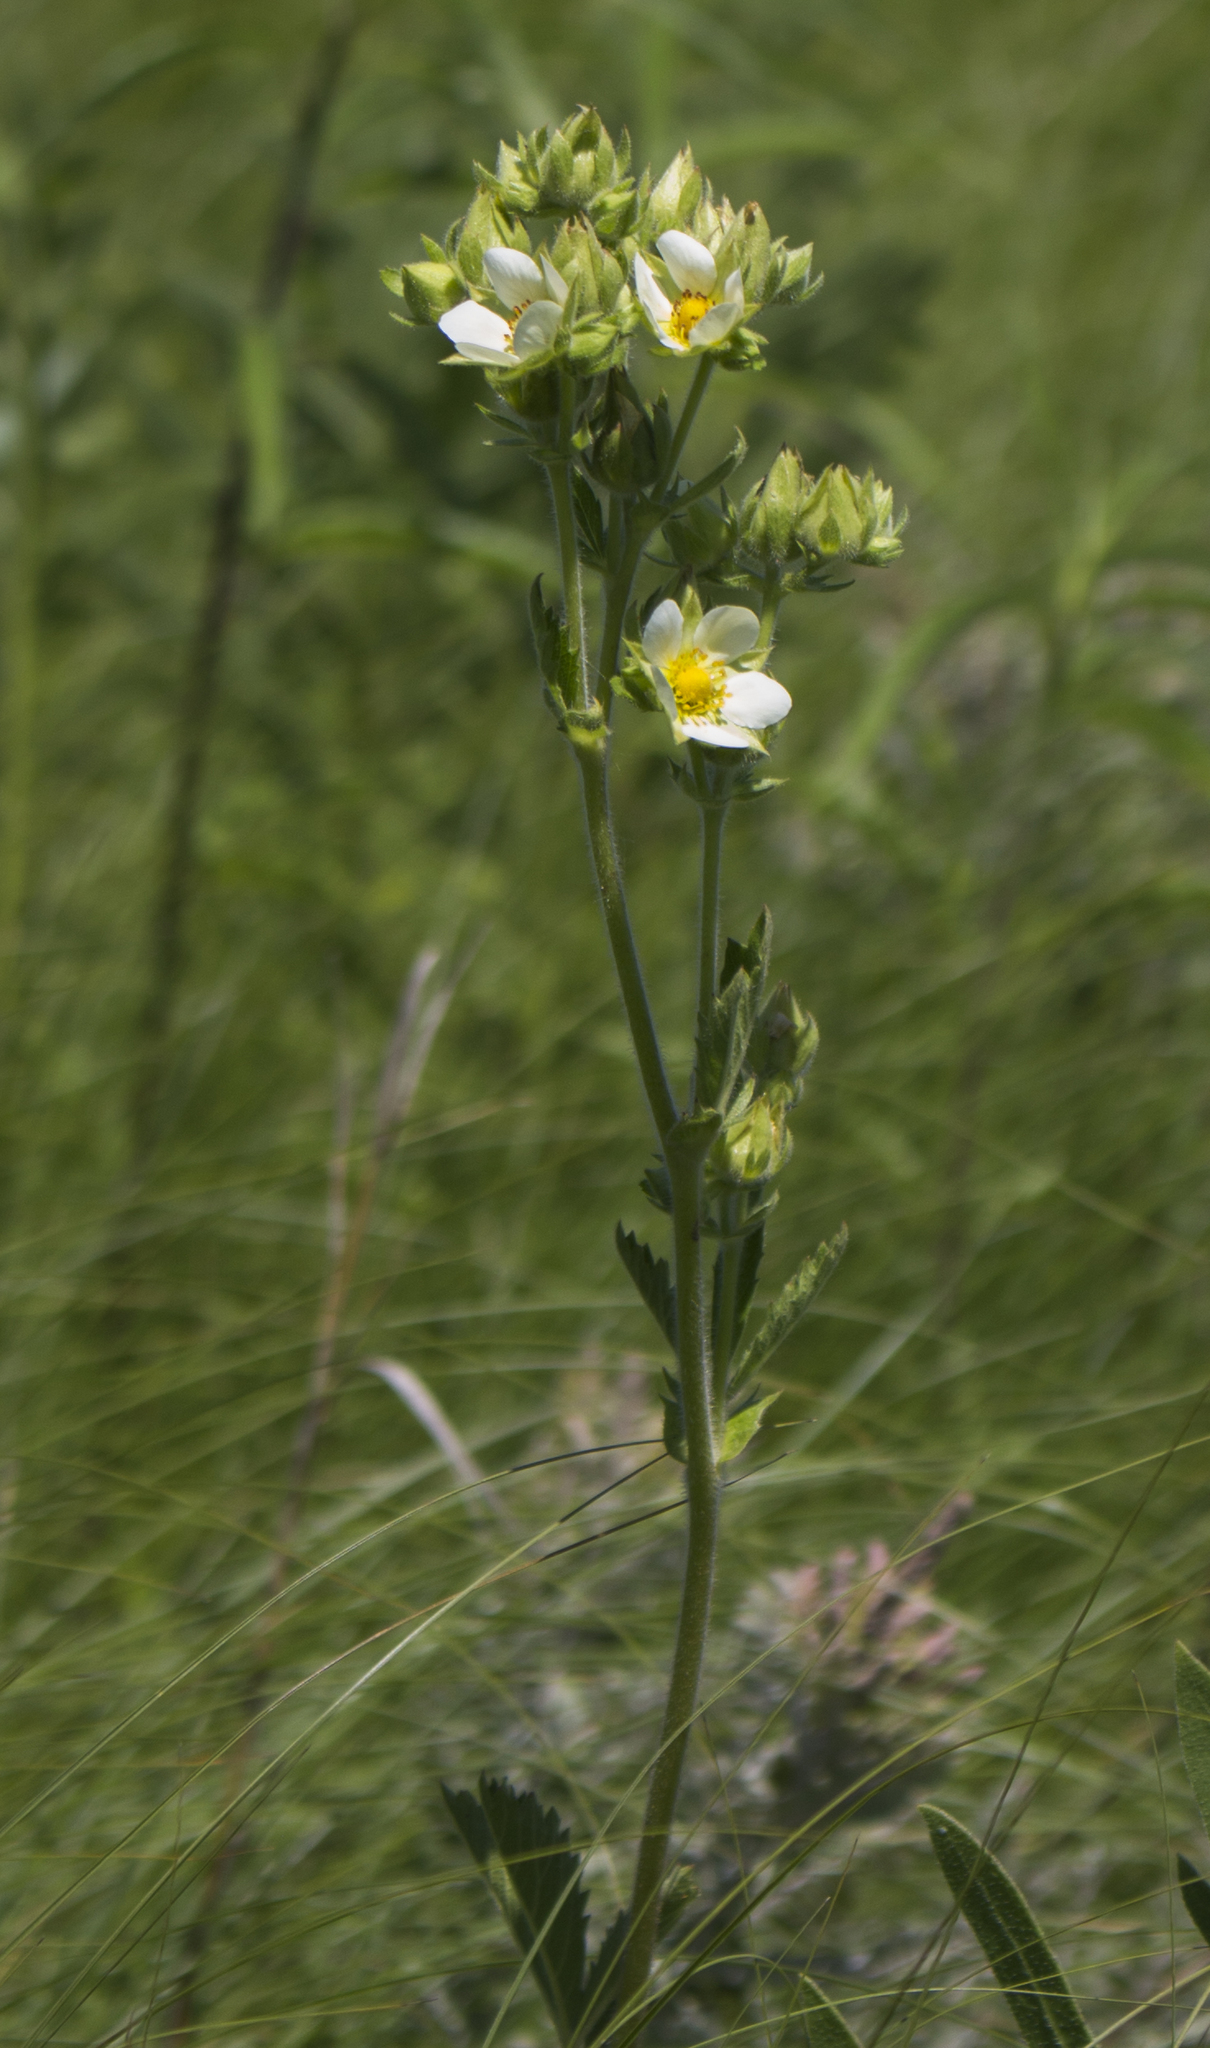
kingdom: Plantae
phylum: Tracheophyta
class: Magnoliopsida
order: Rosales
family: Rosaceae
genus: Drymocallis
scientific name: Drymocallis arguta
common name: Tall cinquefoil
